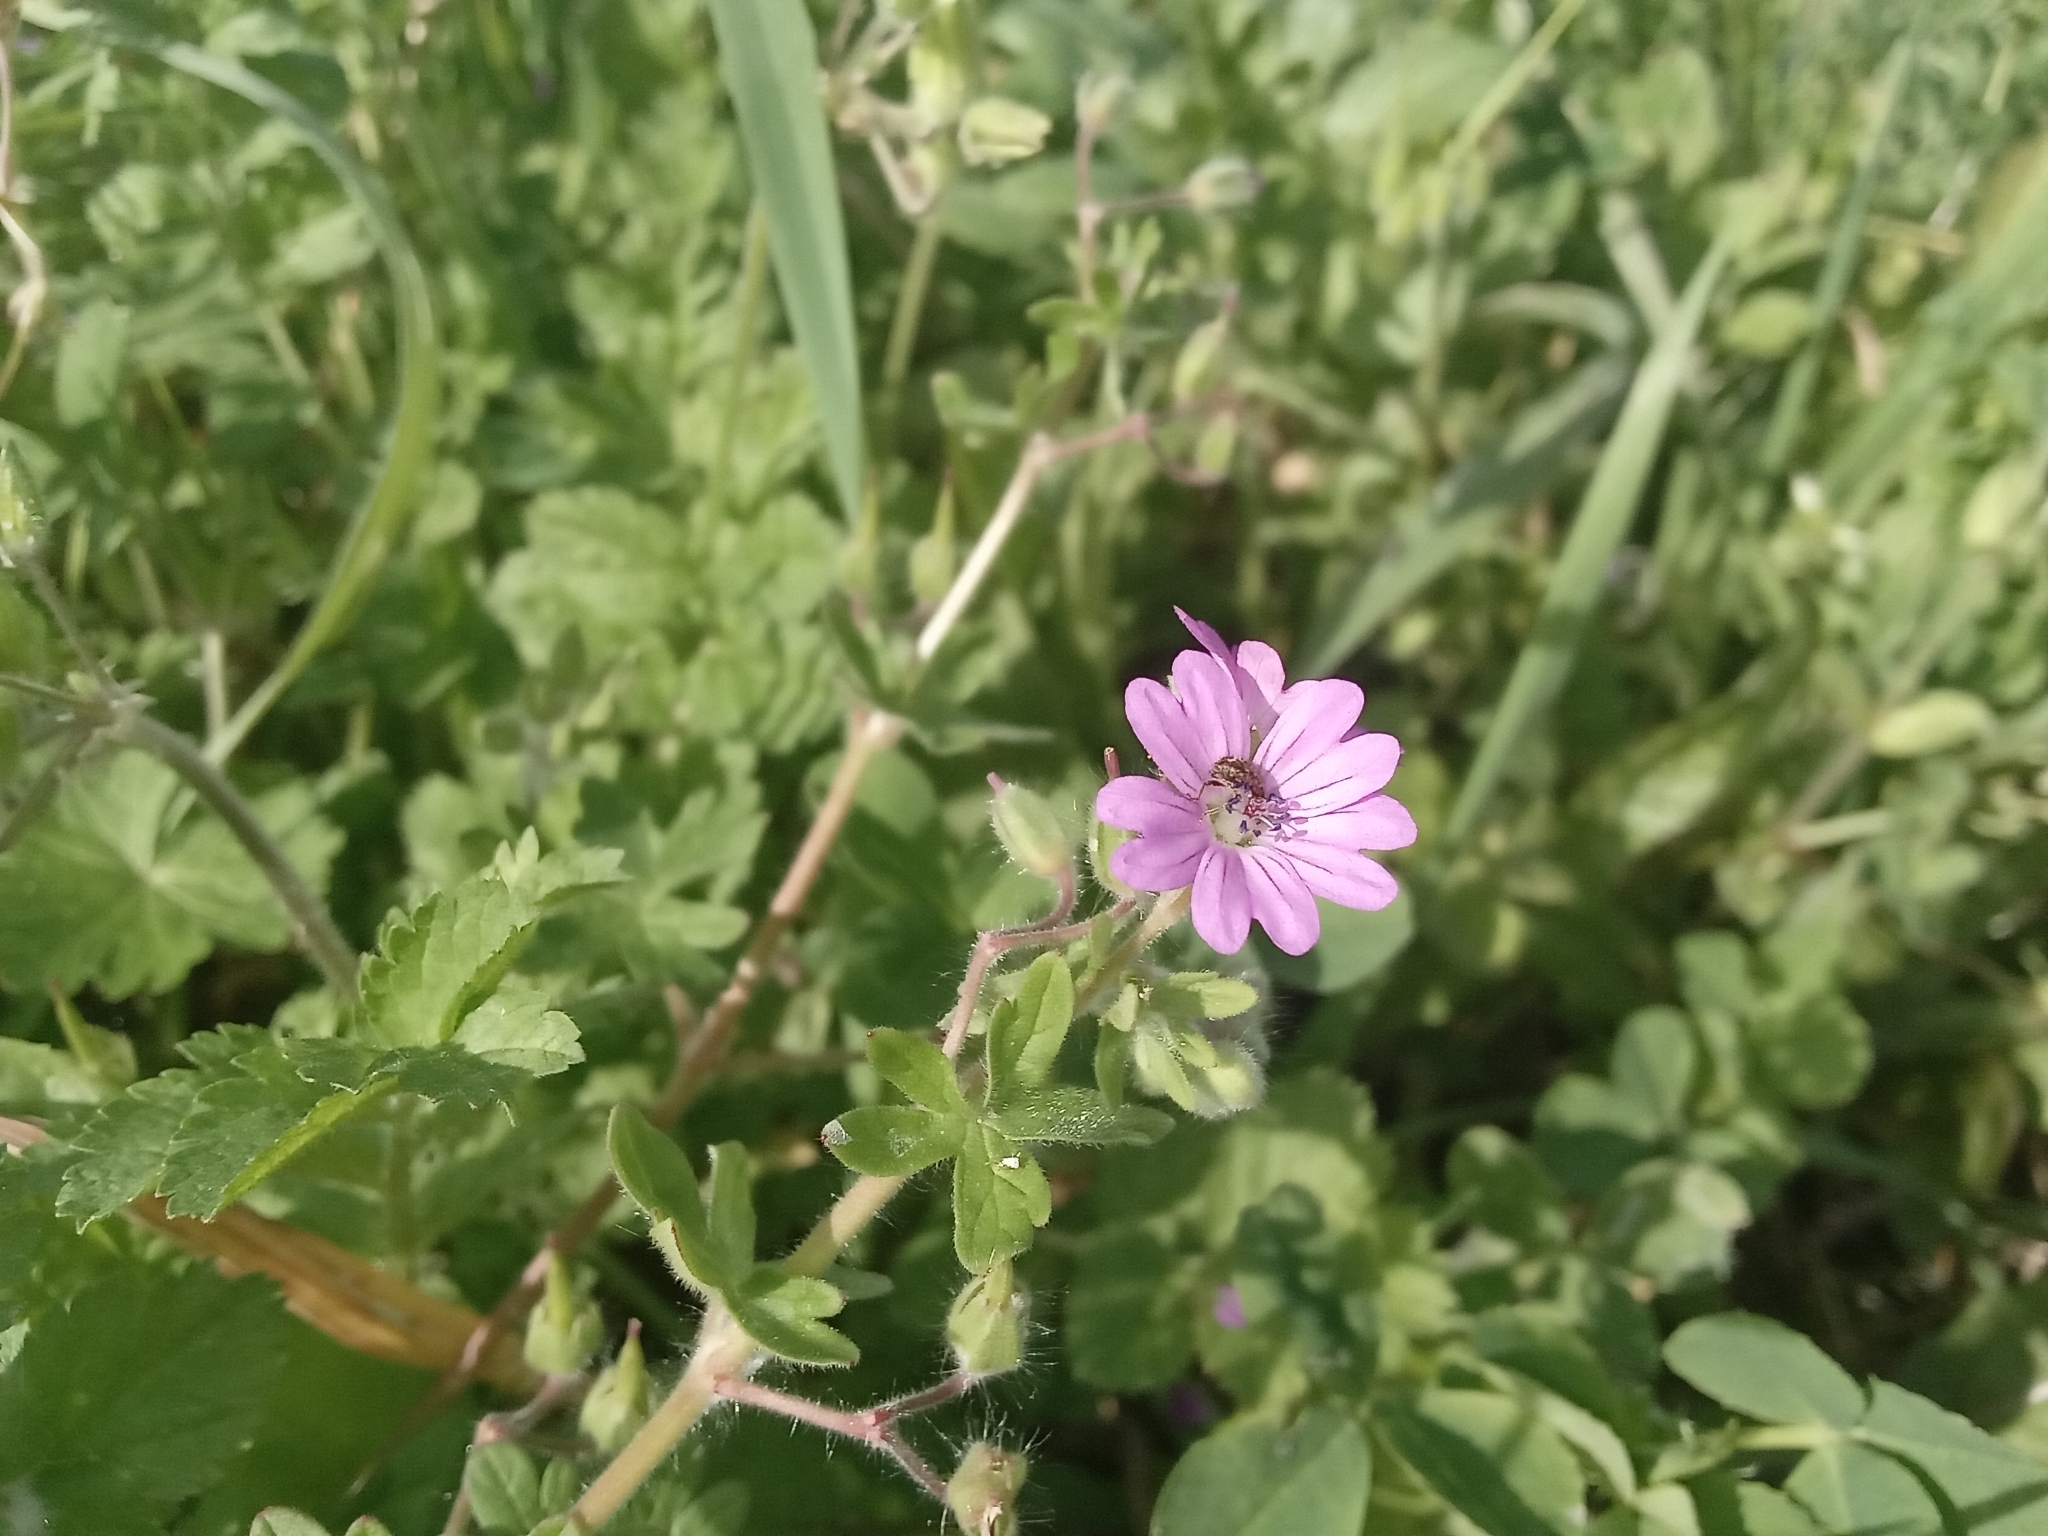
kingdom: Plantae
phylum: Tracheophyta
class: Magnoliopsida
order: Geraniales
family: Geraniaceae
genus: Geranium
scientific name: Geranium molle
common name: Dove's-foot crane's-bill
